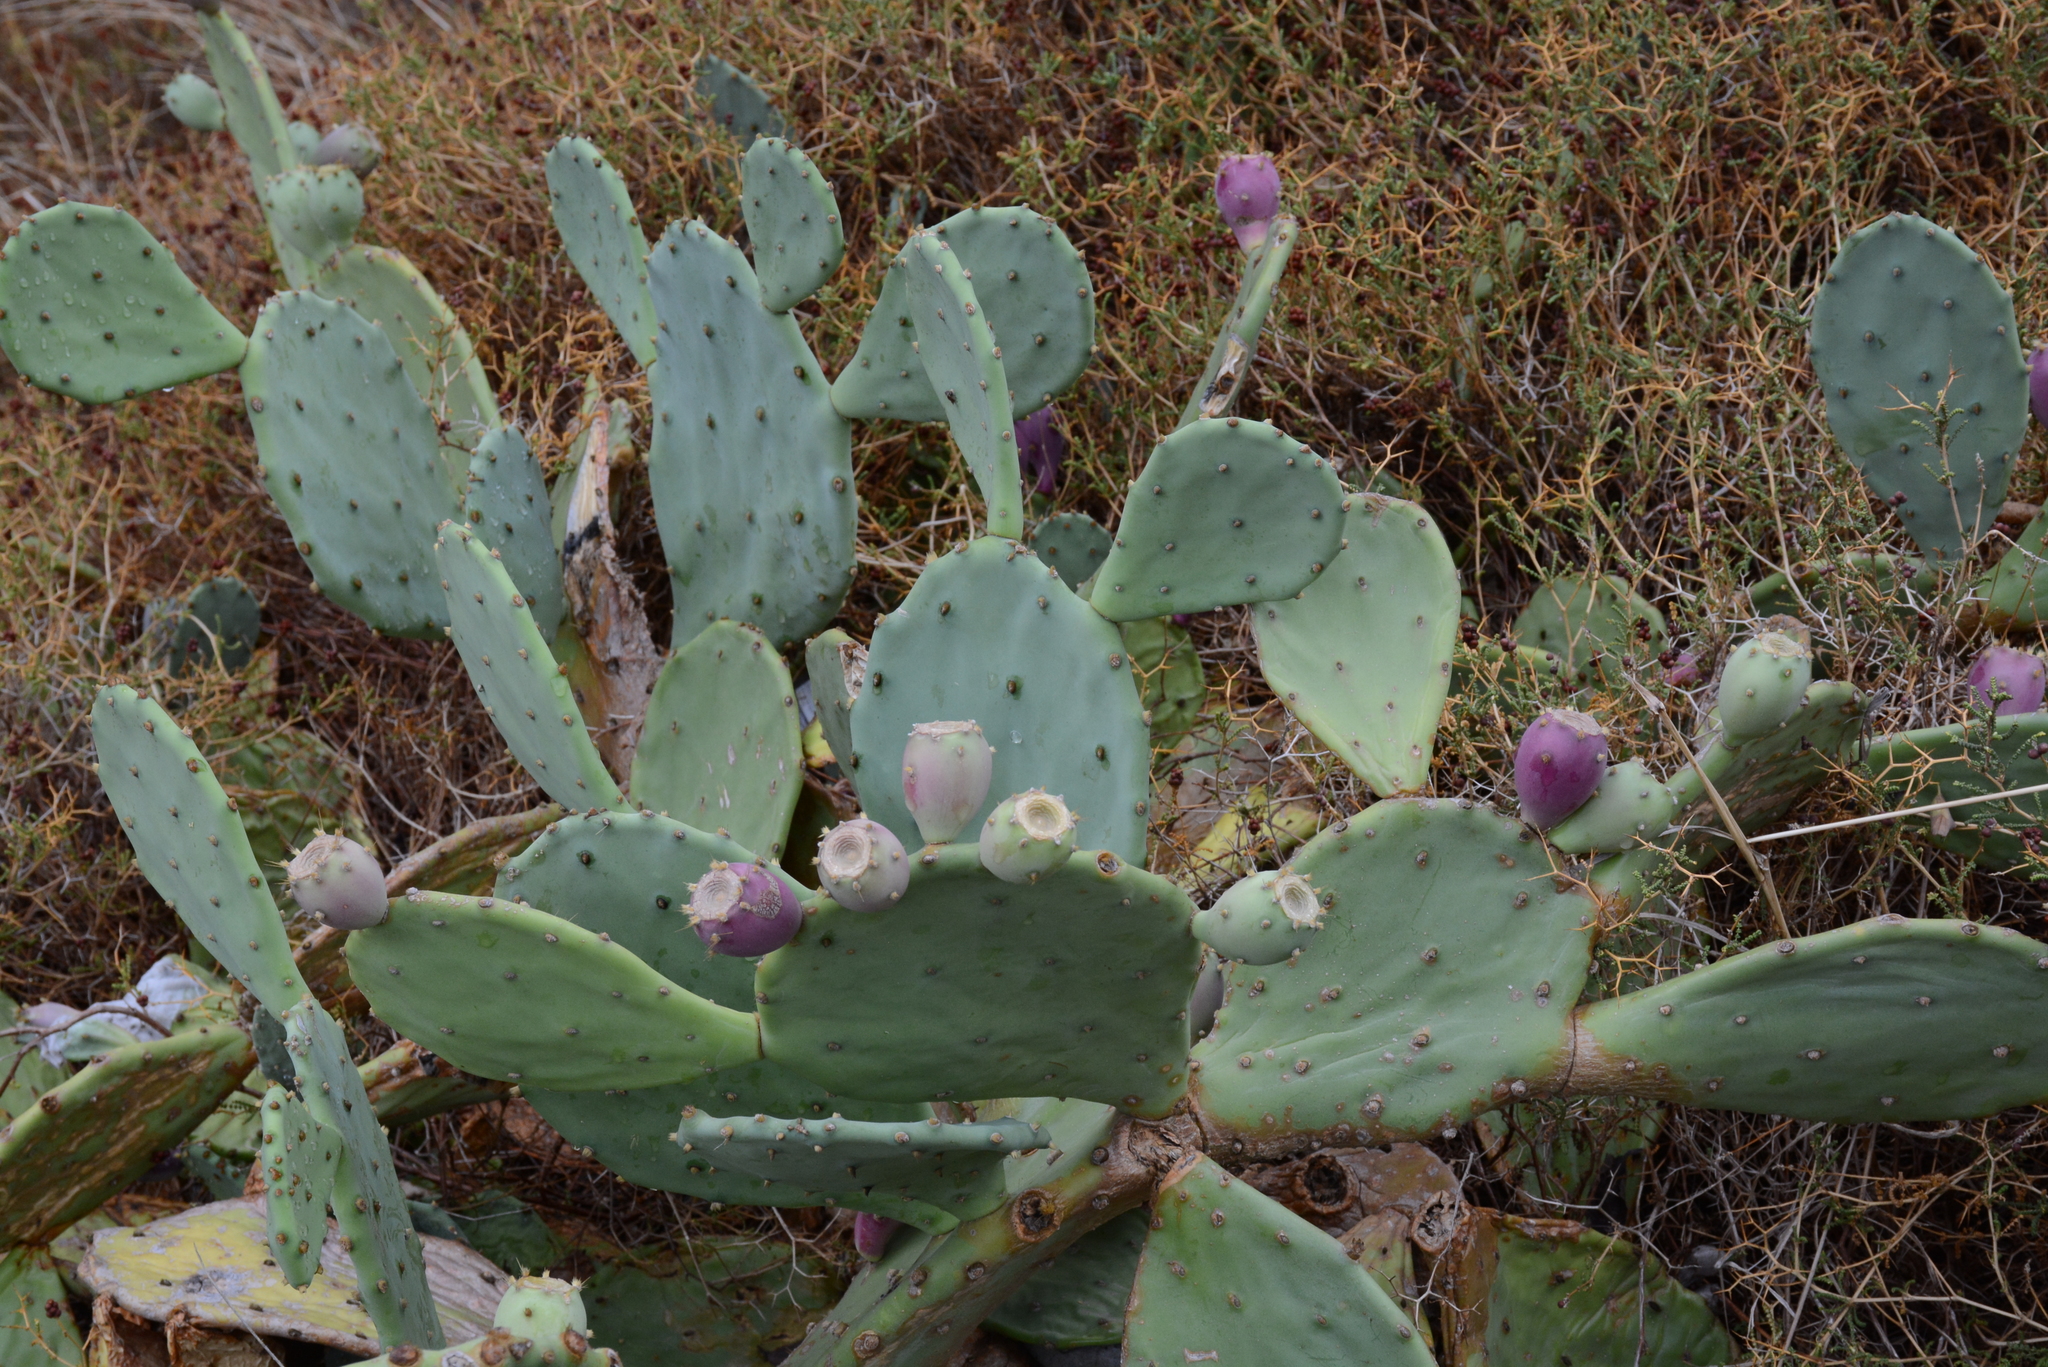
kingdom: Plantae
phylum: Tracheophyta
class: Magnoliopsida
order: Caryophyllales
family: Cactaceae
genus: Opuntia
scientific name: Opuntia anahuacensis
